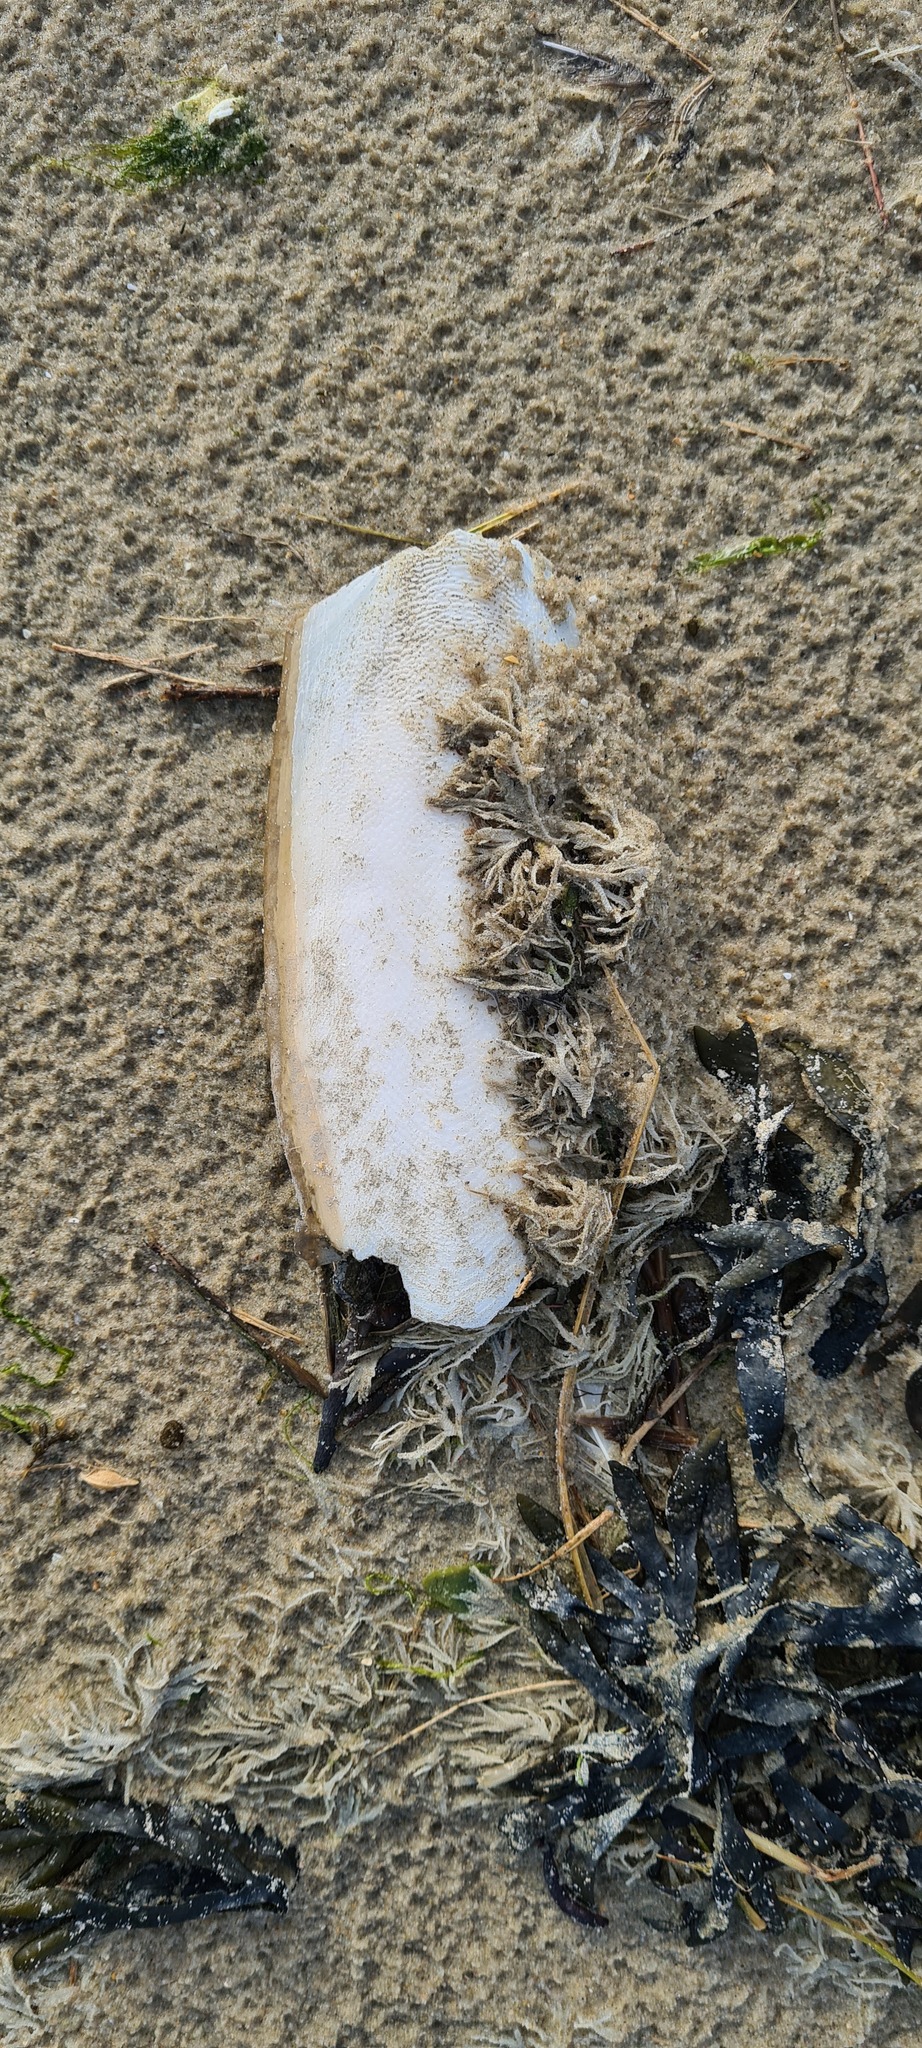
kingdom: Animalia
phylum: Mollusca
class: Cephalopoda
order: Sepiida
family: Sepiidae
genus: Sepia
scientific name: Sepia officinalis
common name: Common cuttlefish
